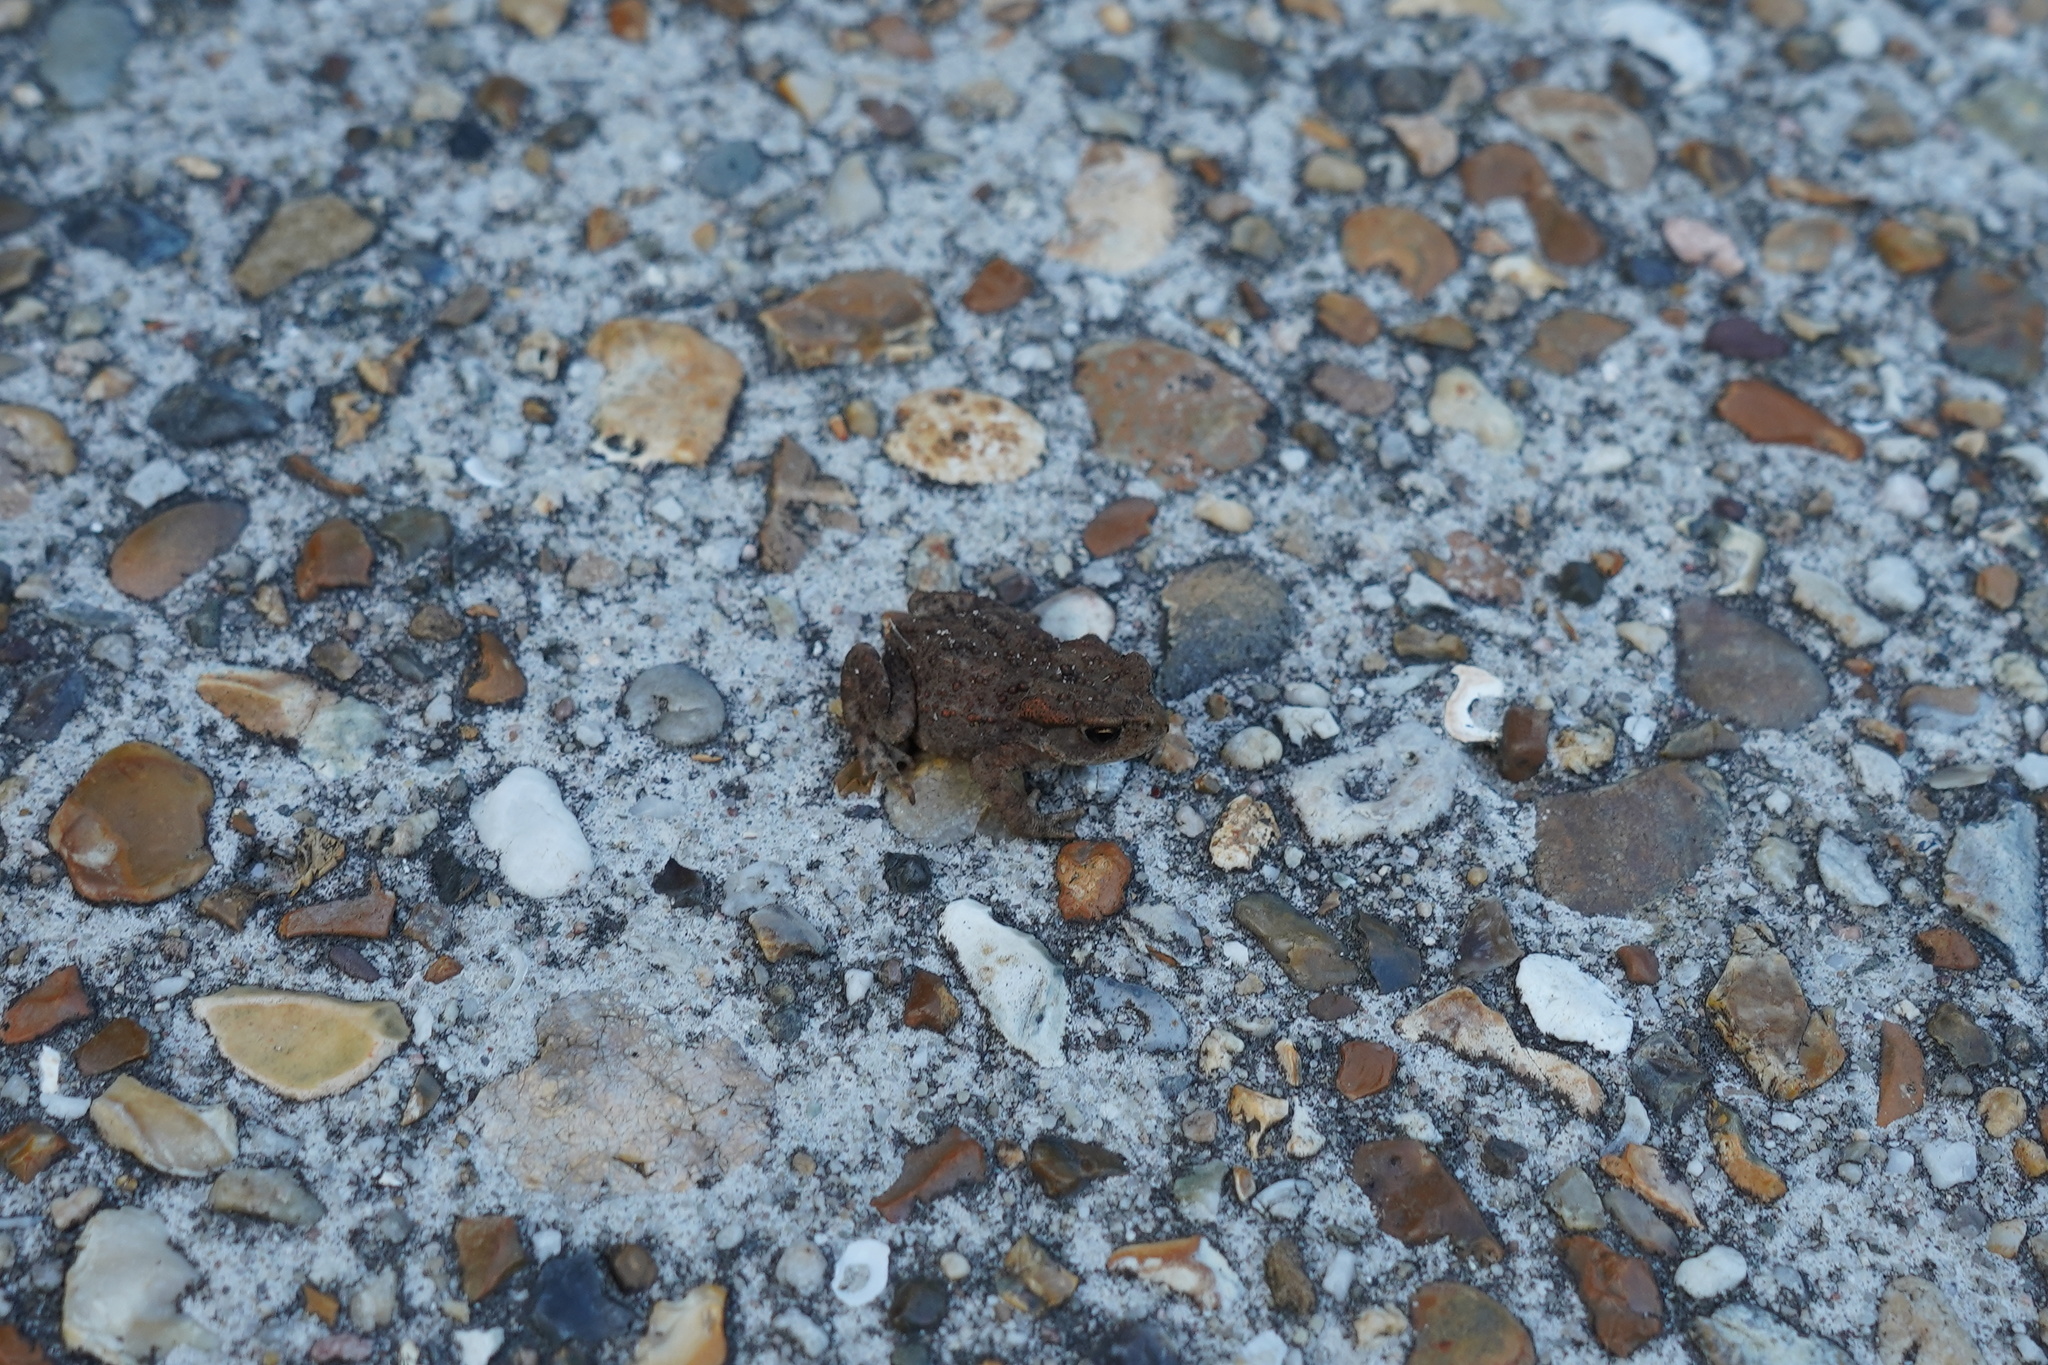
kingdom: Animalia
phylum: Chordata
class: Amphibia
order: Anura
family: Bufonidae
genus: Bufo
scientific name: Bufo bufo
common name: Common toad
